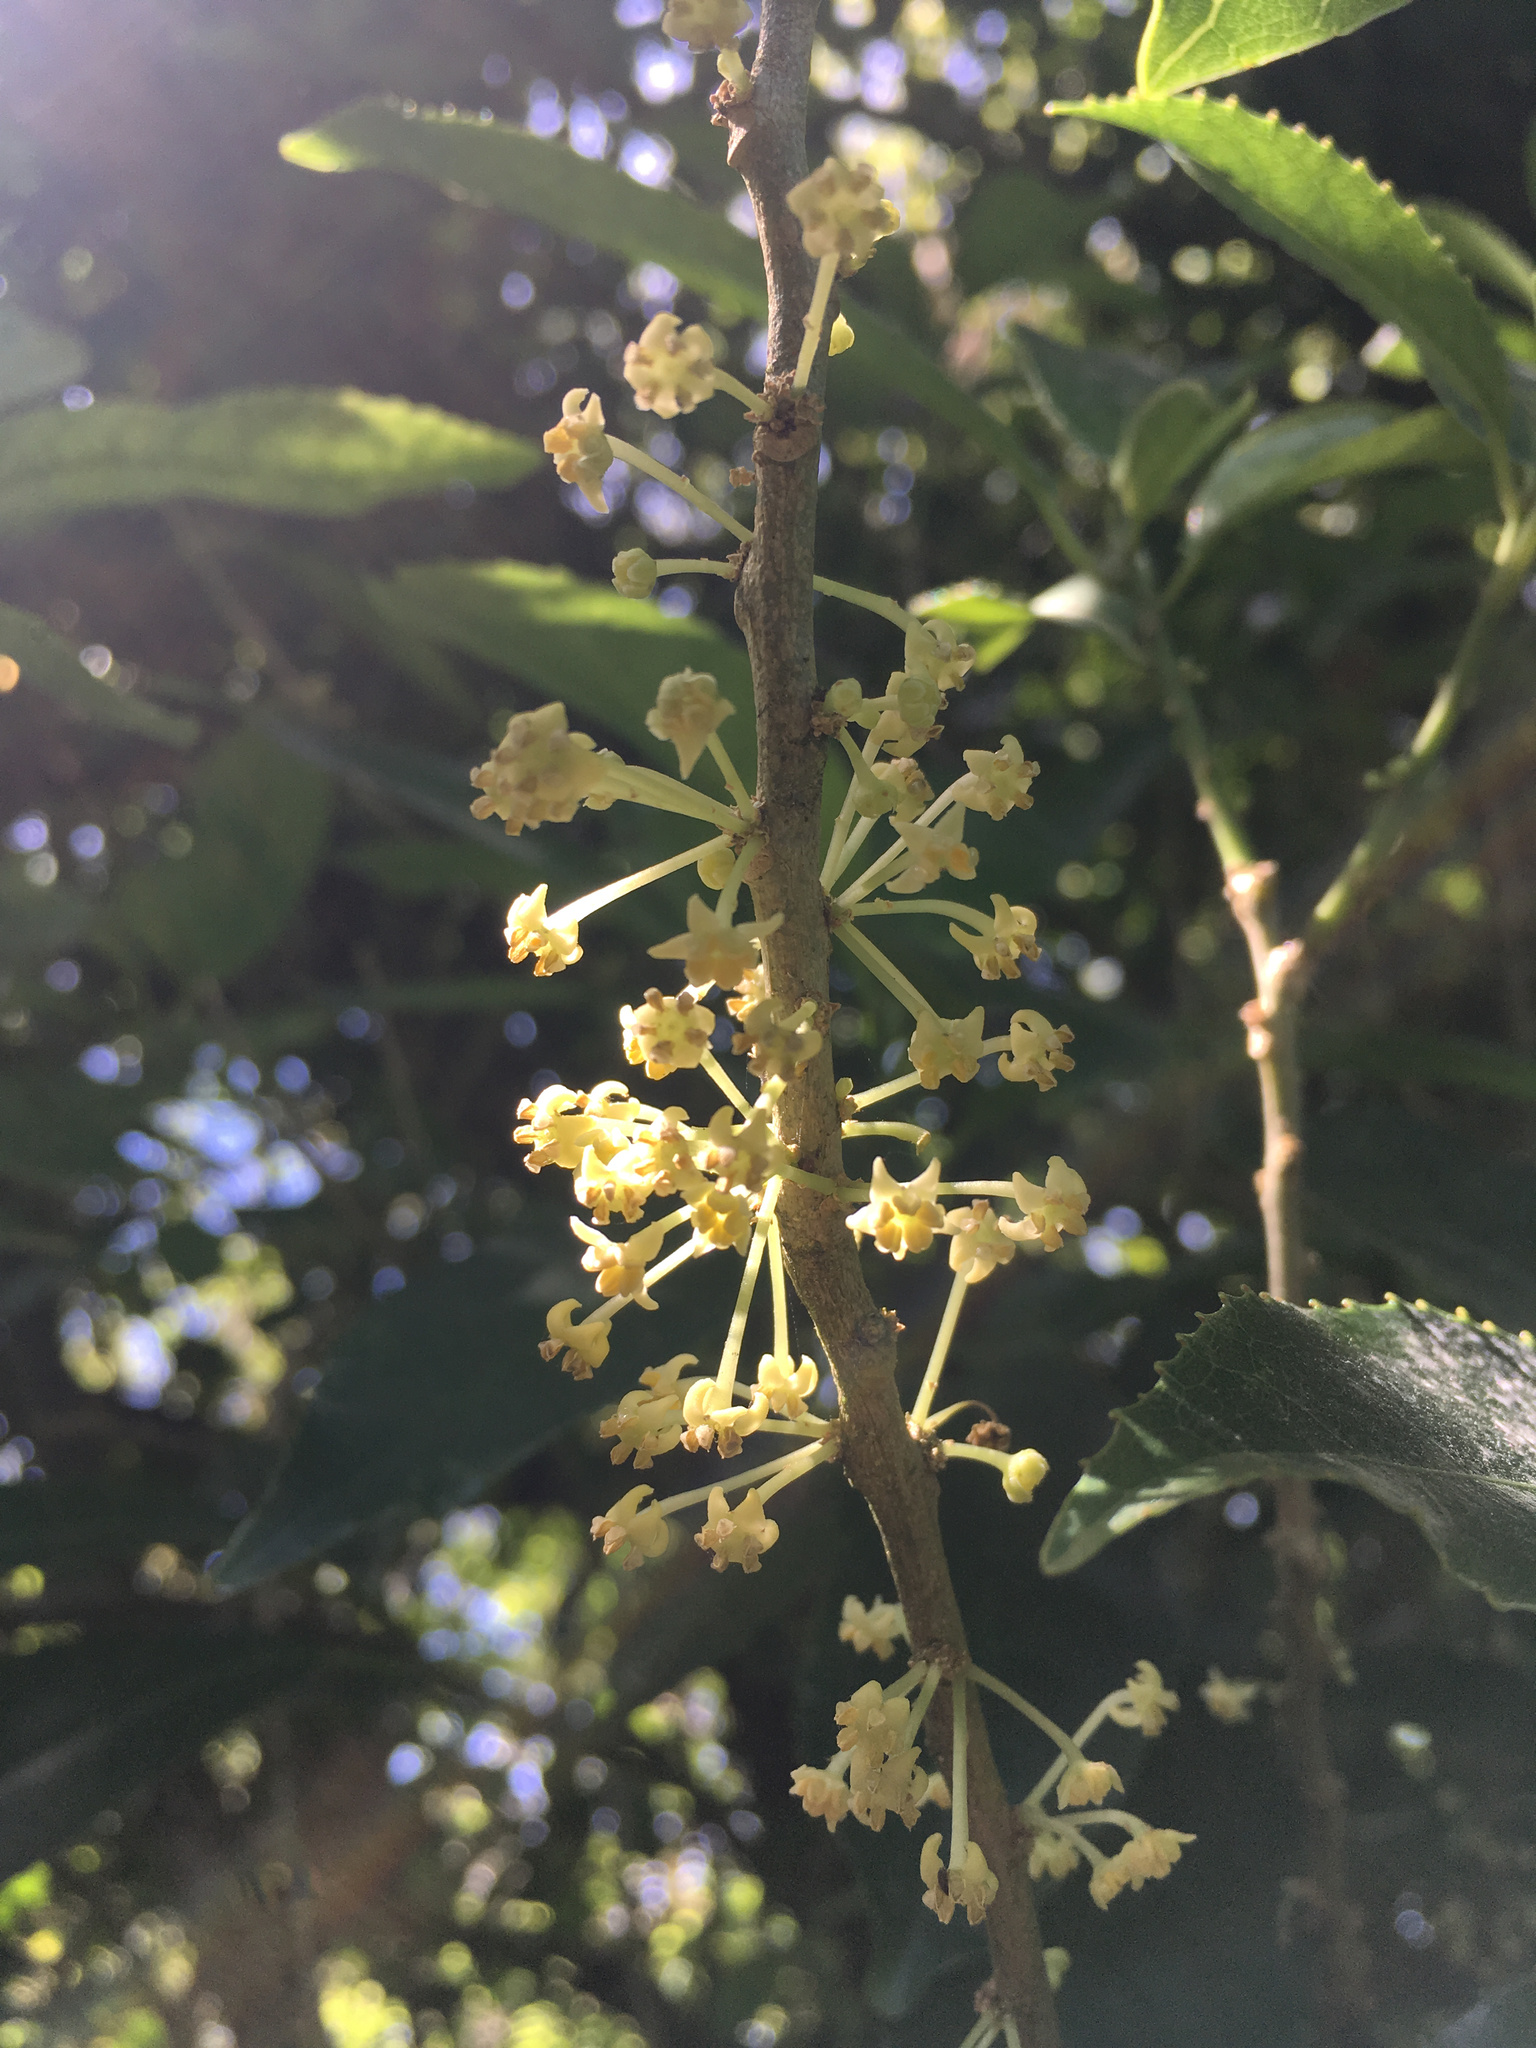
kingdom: Plantae
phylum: Tracheophyta
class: Magnoliopsida
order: Malpighiales
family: Violaceae
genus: Melicytus
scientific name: Melicytus ramiflorus
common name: Mahoe
